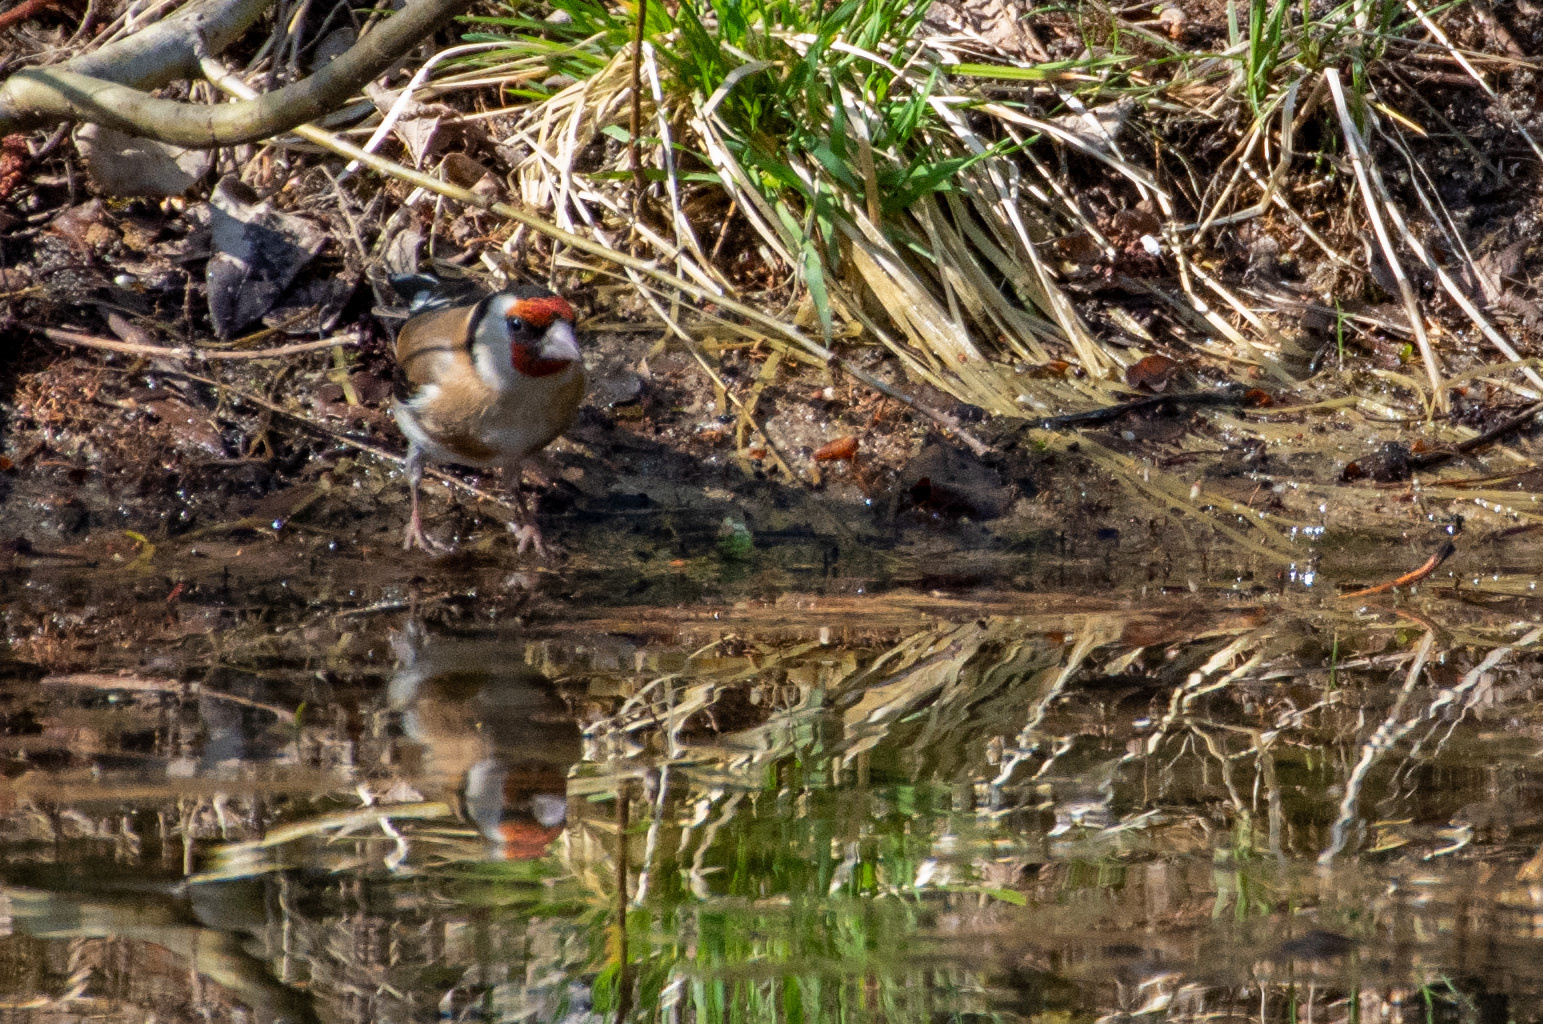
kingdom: Animalia
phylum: Chordata
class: Aves
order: Passeriformes
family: Fringillidae
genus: Carduelis
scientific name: Carduelis carduelis
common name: European goldfinch
